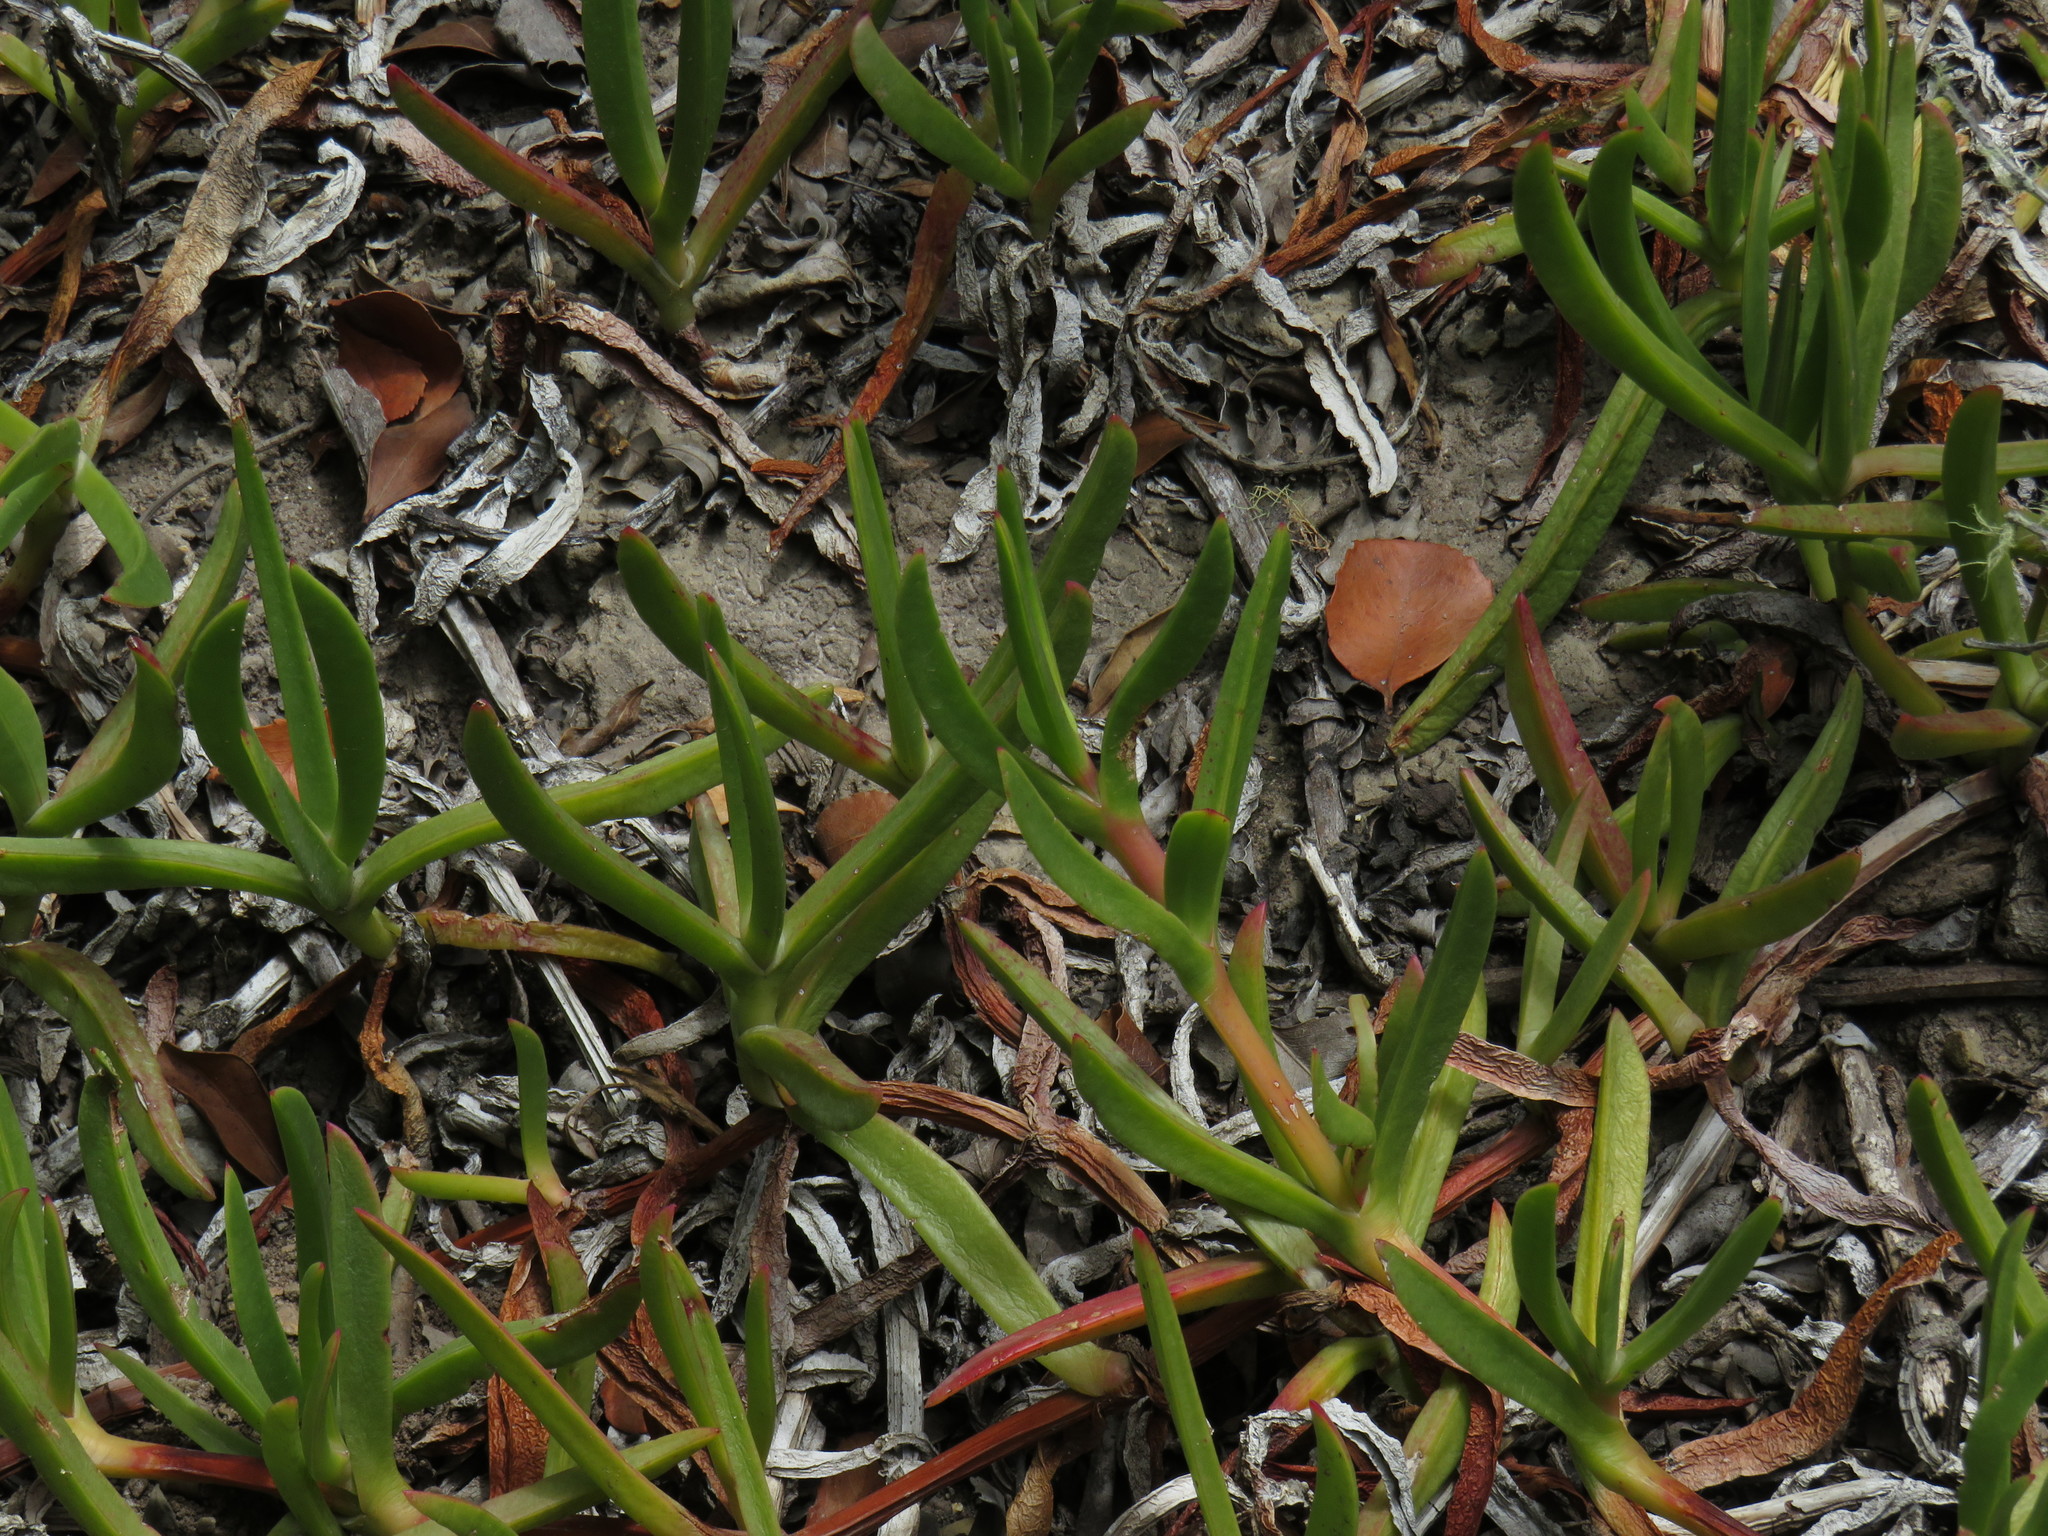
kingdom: Plantae
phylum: Tracheophyta
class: Magnoliopsida
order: Caryophyllales
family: Aizoaceae
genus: Carpobrotus
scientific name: Carpobrotus deliciosus
